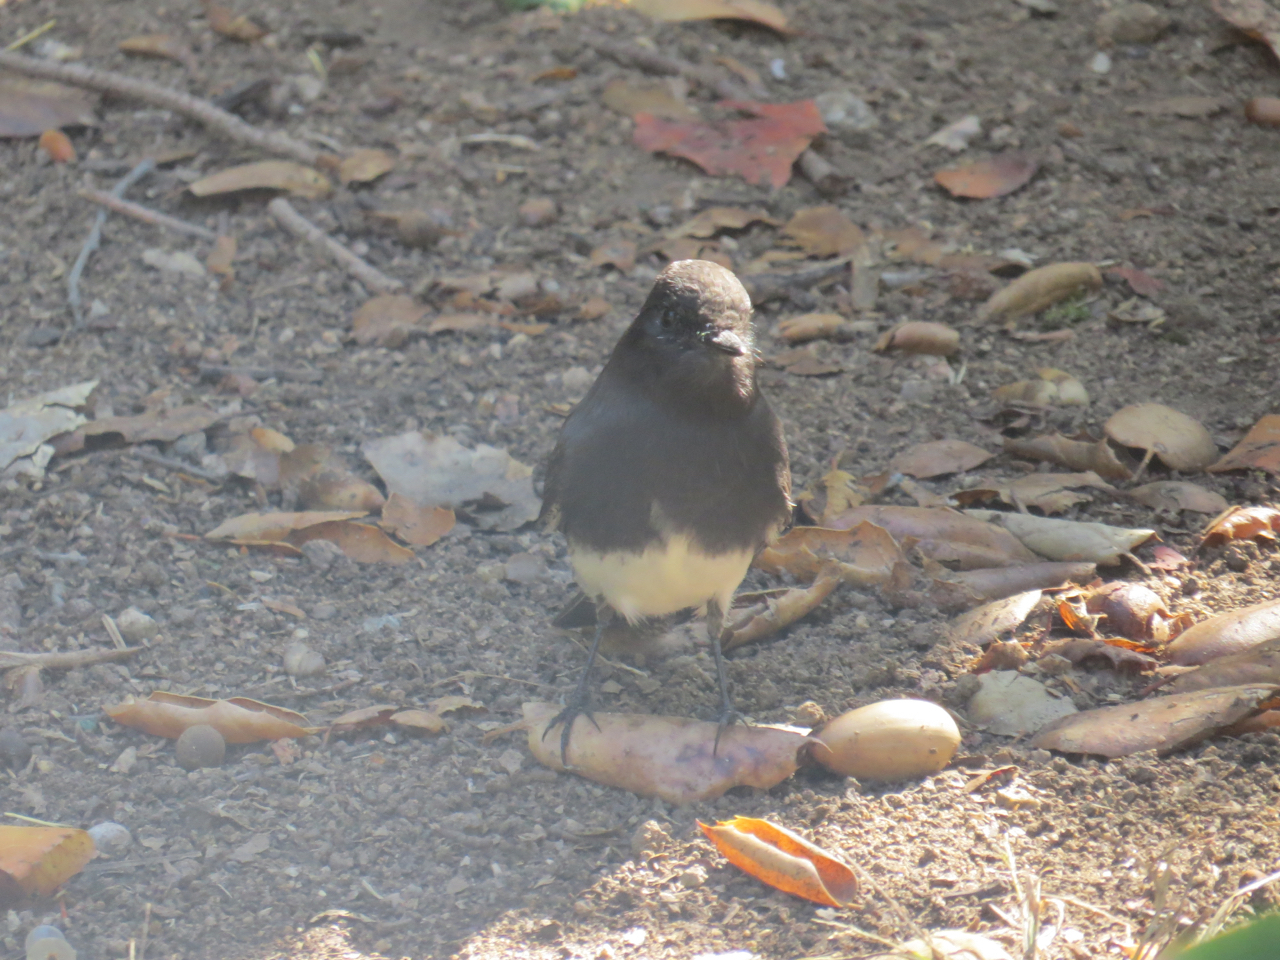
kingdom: Animalia
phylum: Chordata
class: Aves
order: Passeriformes
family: Tyrannidae
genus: Sayornis
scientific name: Sayornis nigricans
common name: Black phoebe
